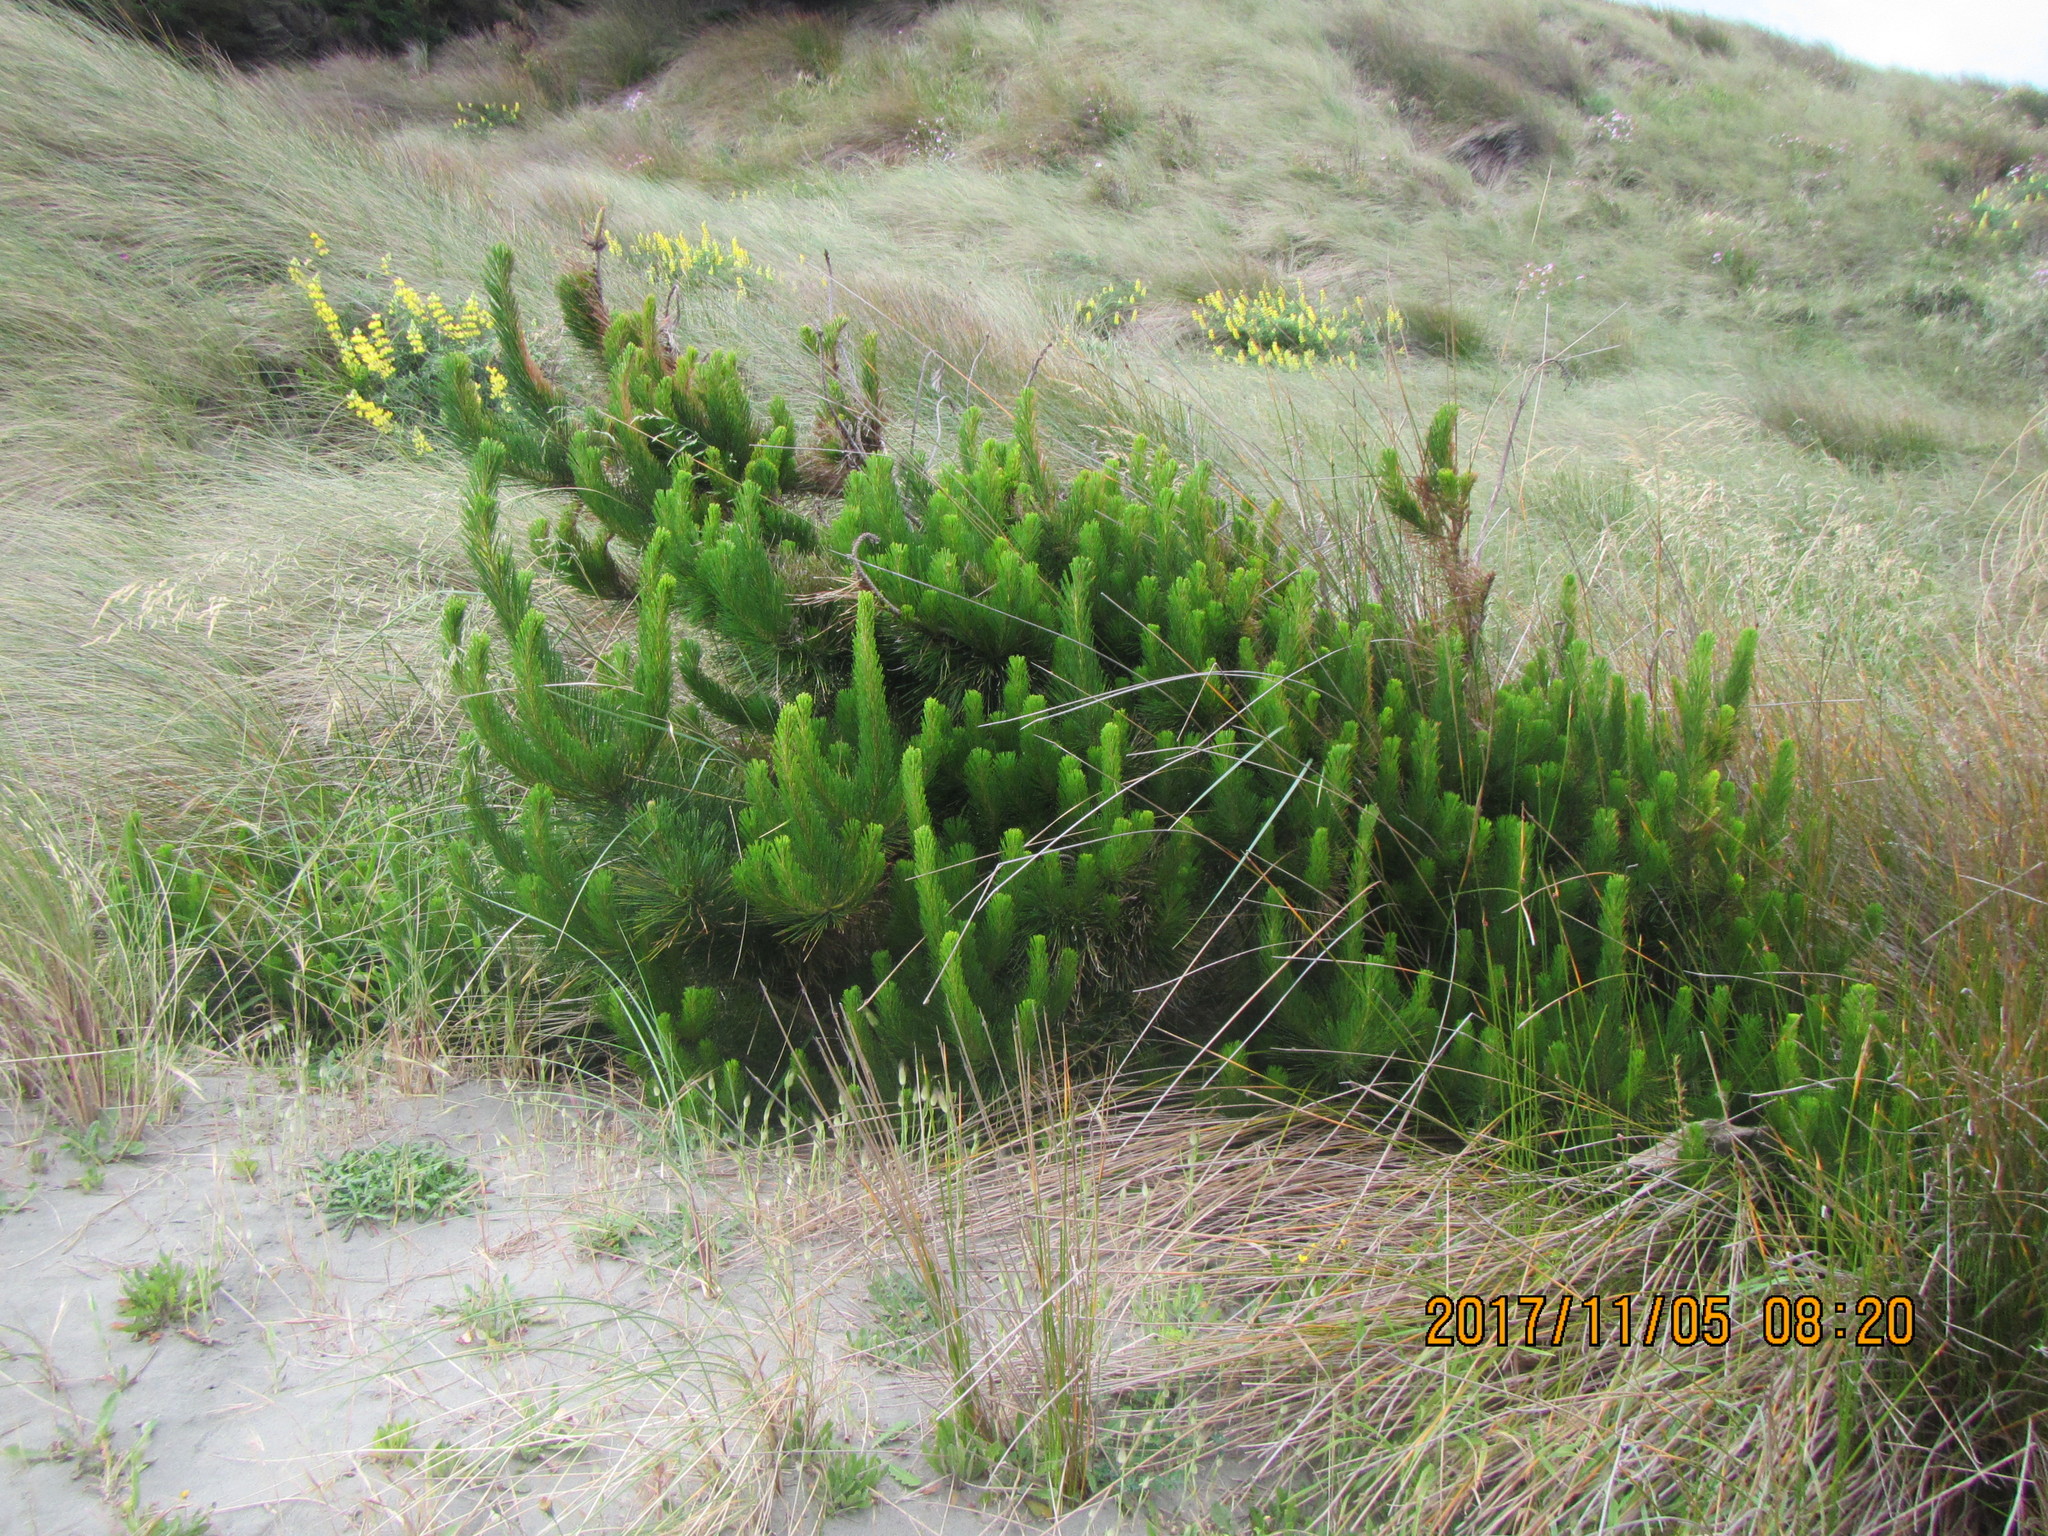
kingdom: Plantae
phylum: Tracheophyta
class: Pinopsida
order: Pinales
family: Pinaceae
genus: Pinus
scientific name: Pinus radiata
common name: Monterey pine
